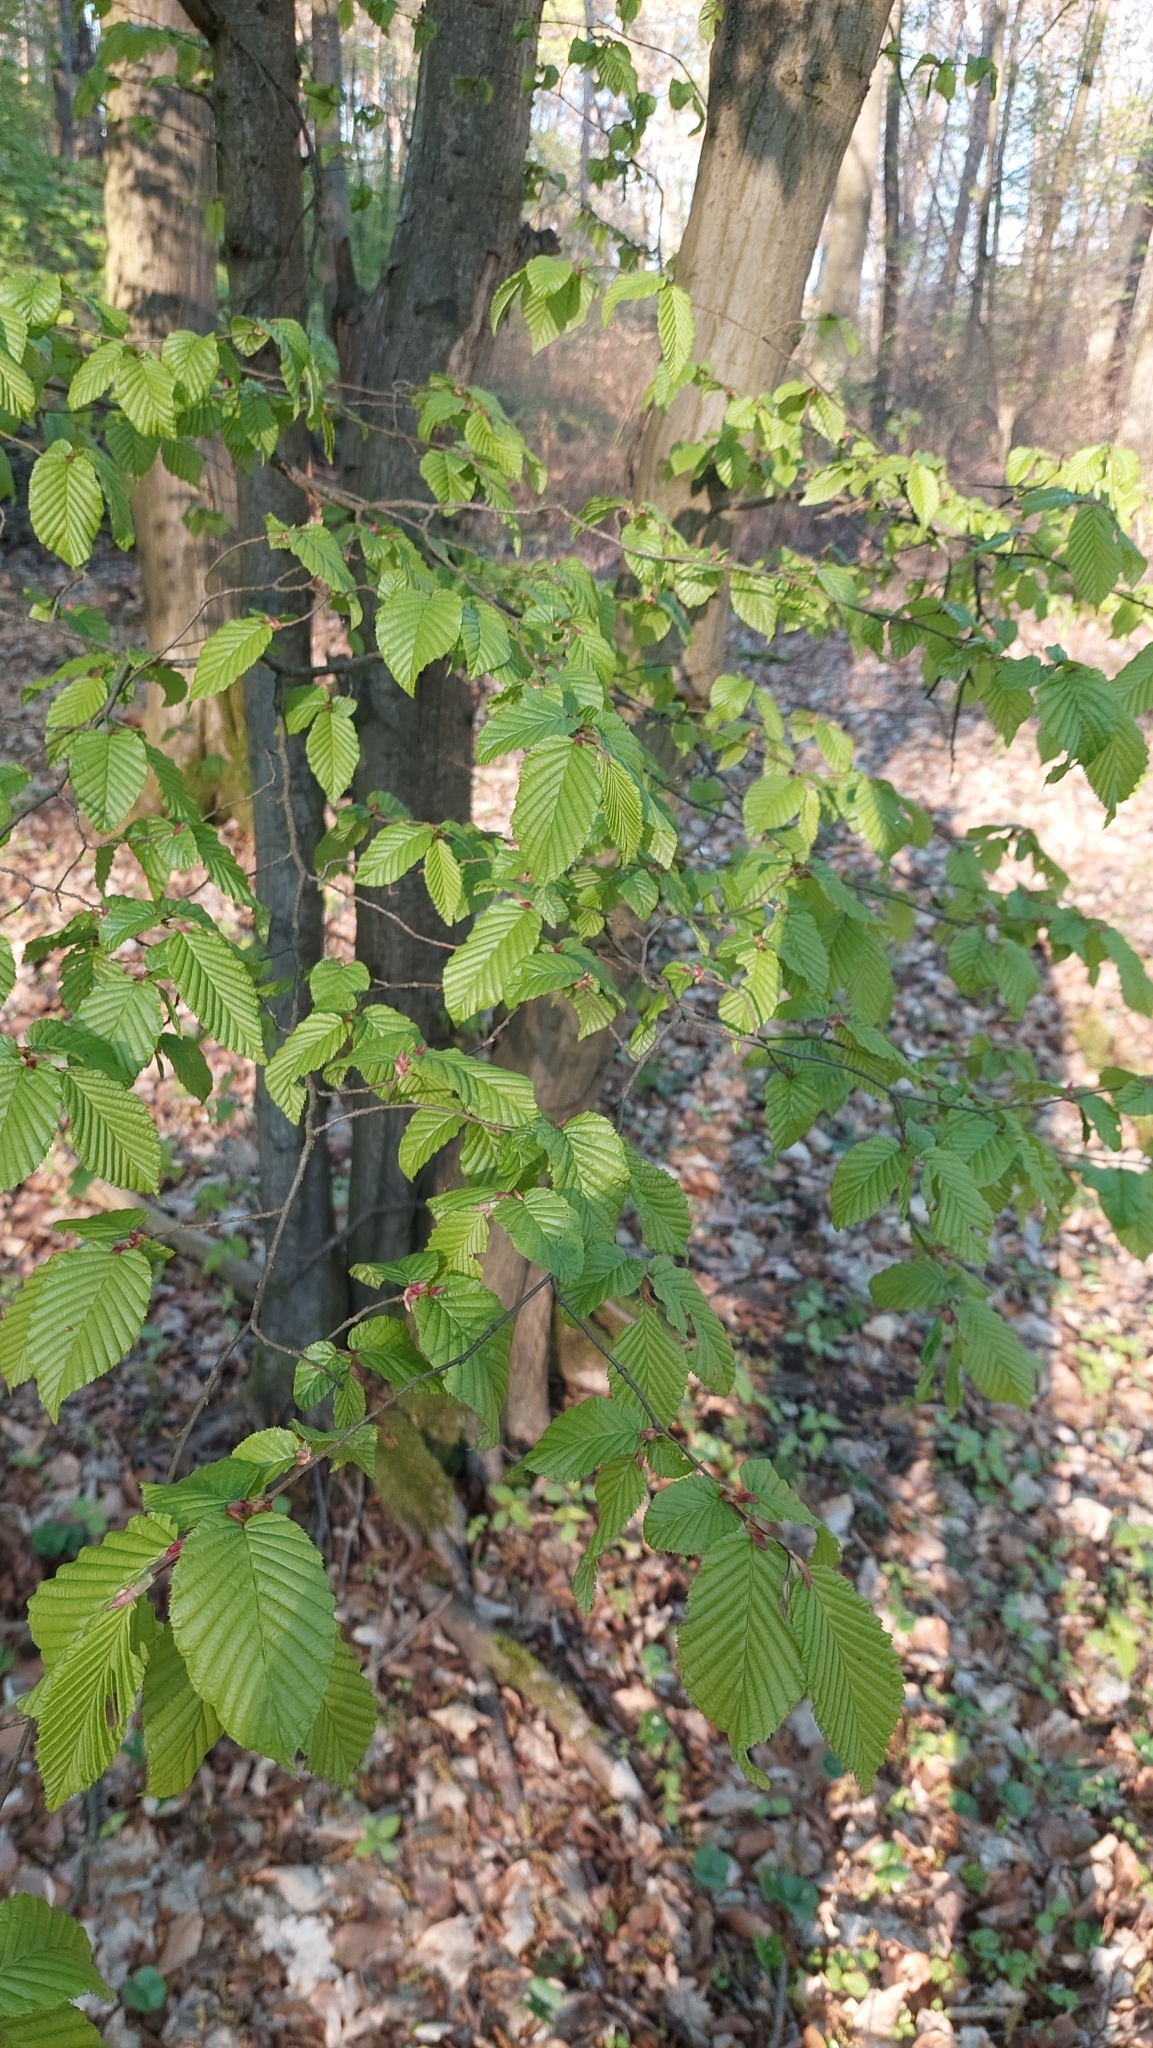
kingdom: Plantae
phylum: Tracheophyta
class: Magnoliopsida
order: Fagales
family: Betulaceae
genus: Carpinus
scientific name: Carpinus betulus
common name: Hornbeam
